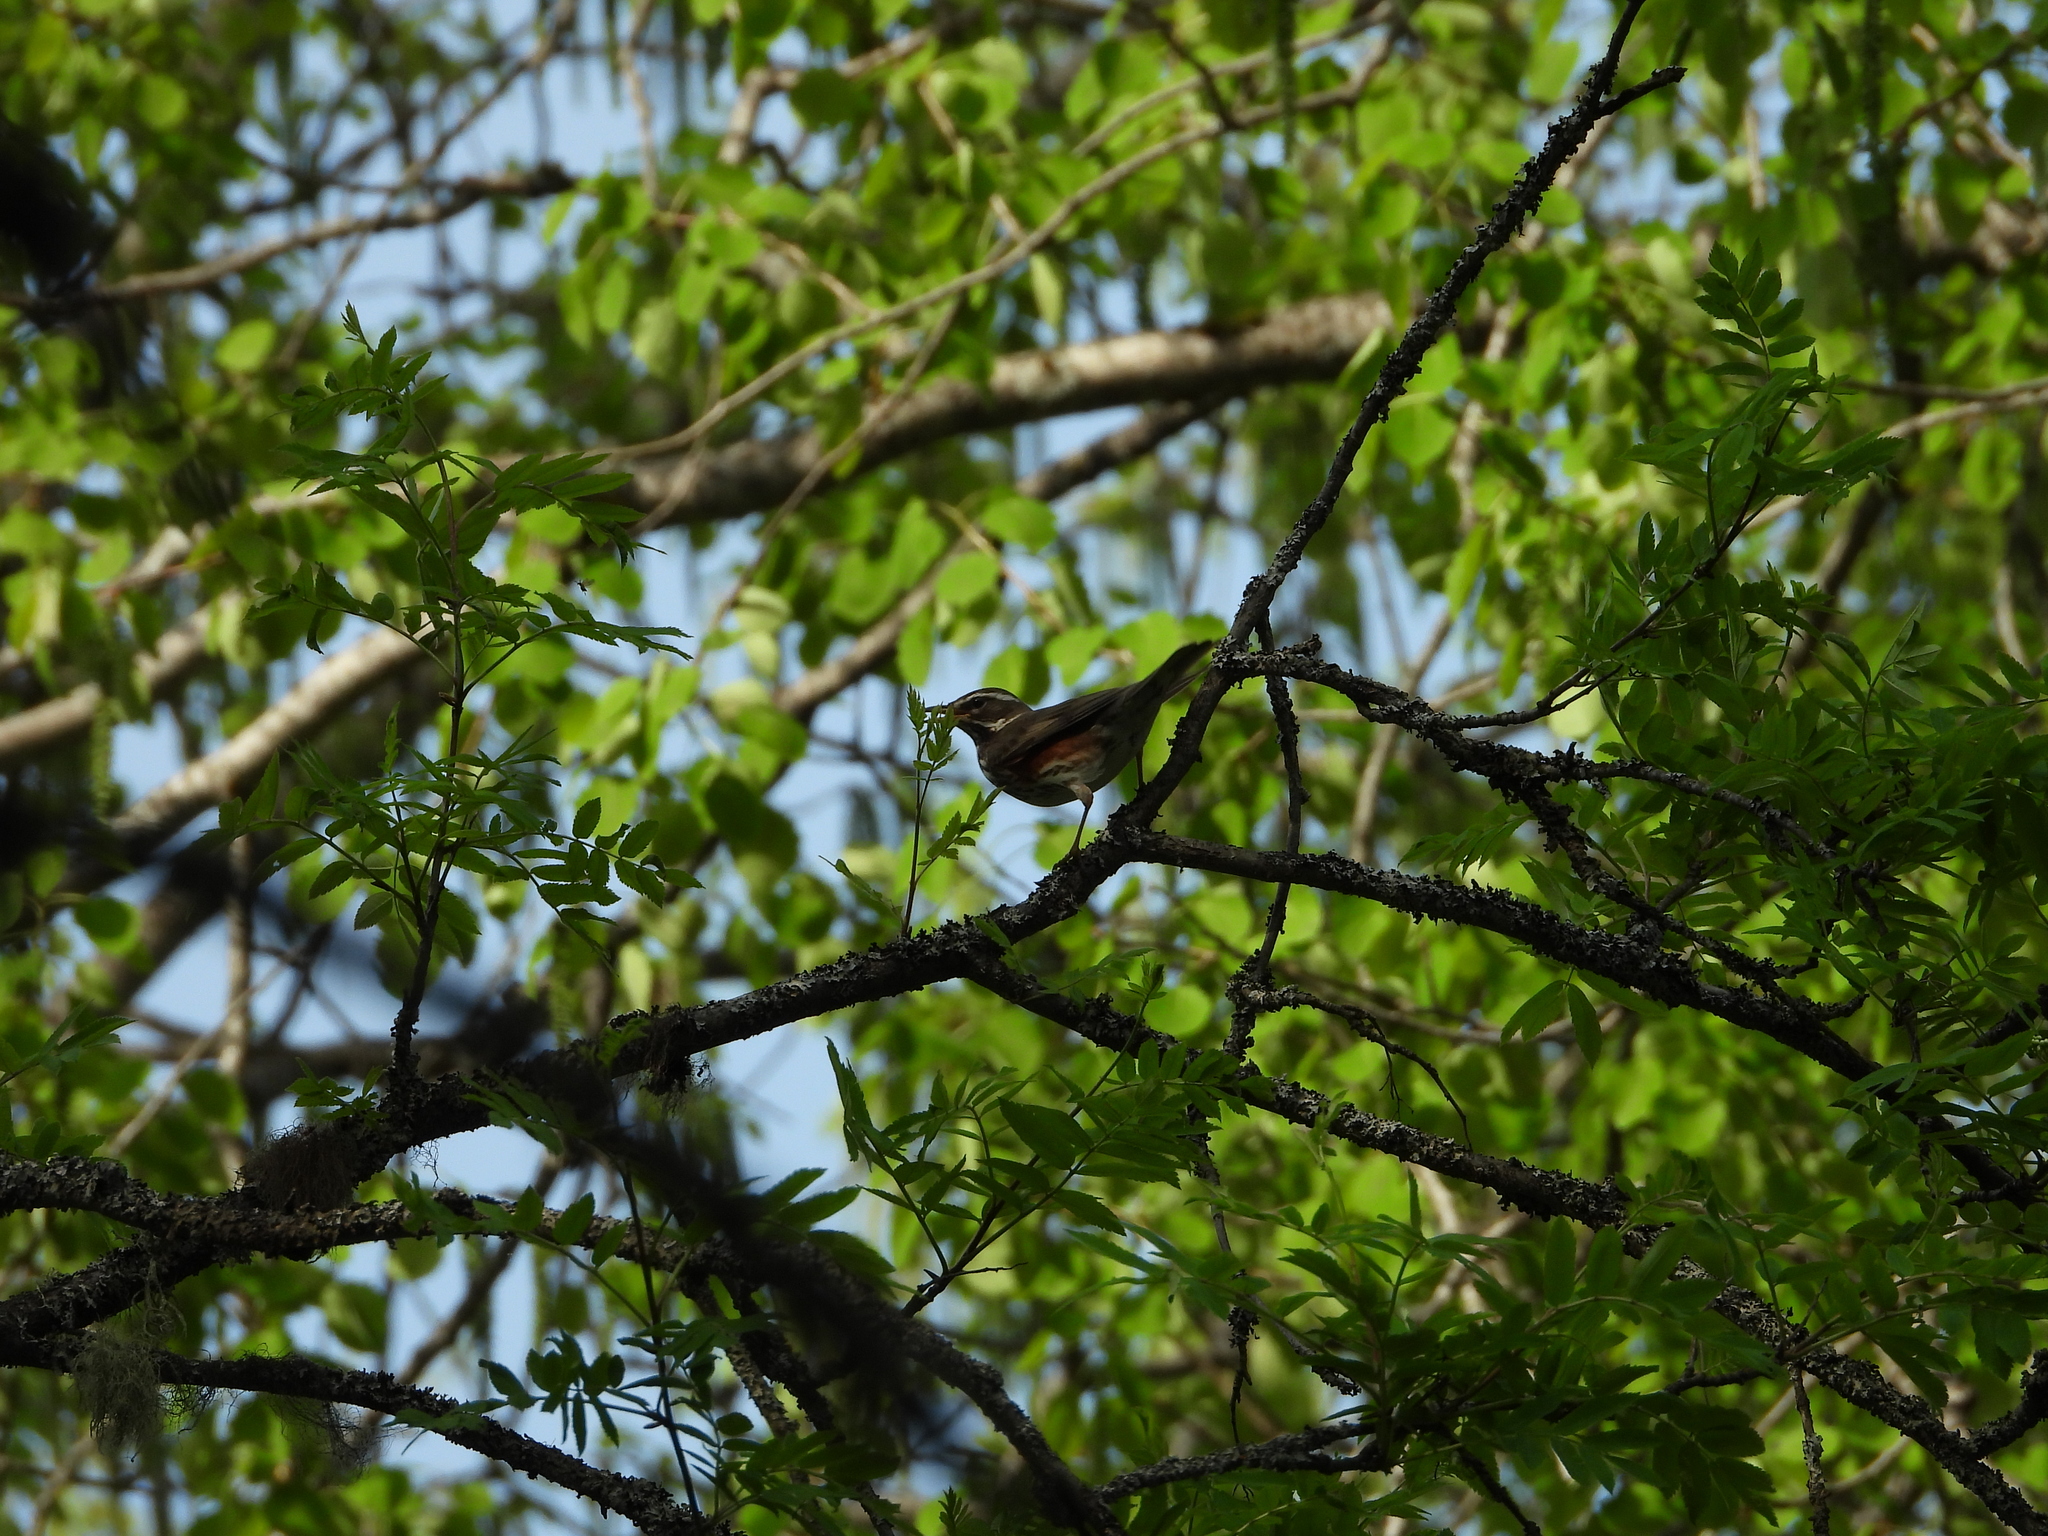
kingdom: Animalia
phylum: Chordata
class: Aves
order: Passeriformes
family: Turdidae
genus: Turdus
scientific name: Turdus iliacus
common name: Redwing
